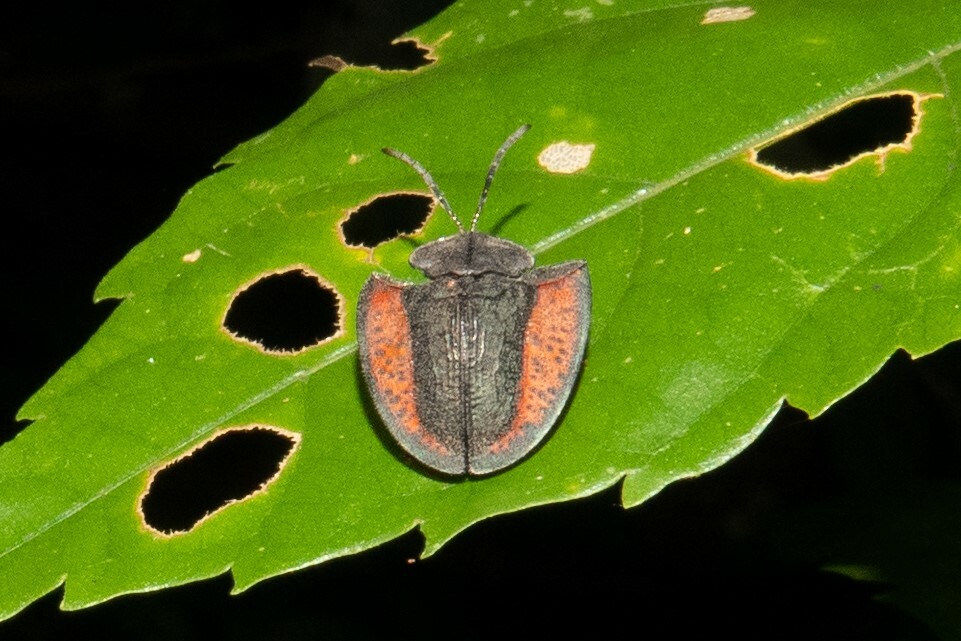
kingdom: Animalia
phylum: Arthropoda
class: Insecta
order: Coleoptera
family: Chrysomelidae
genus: Dorynota
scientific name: Dorynota electa
